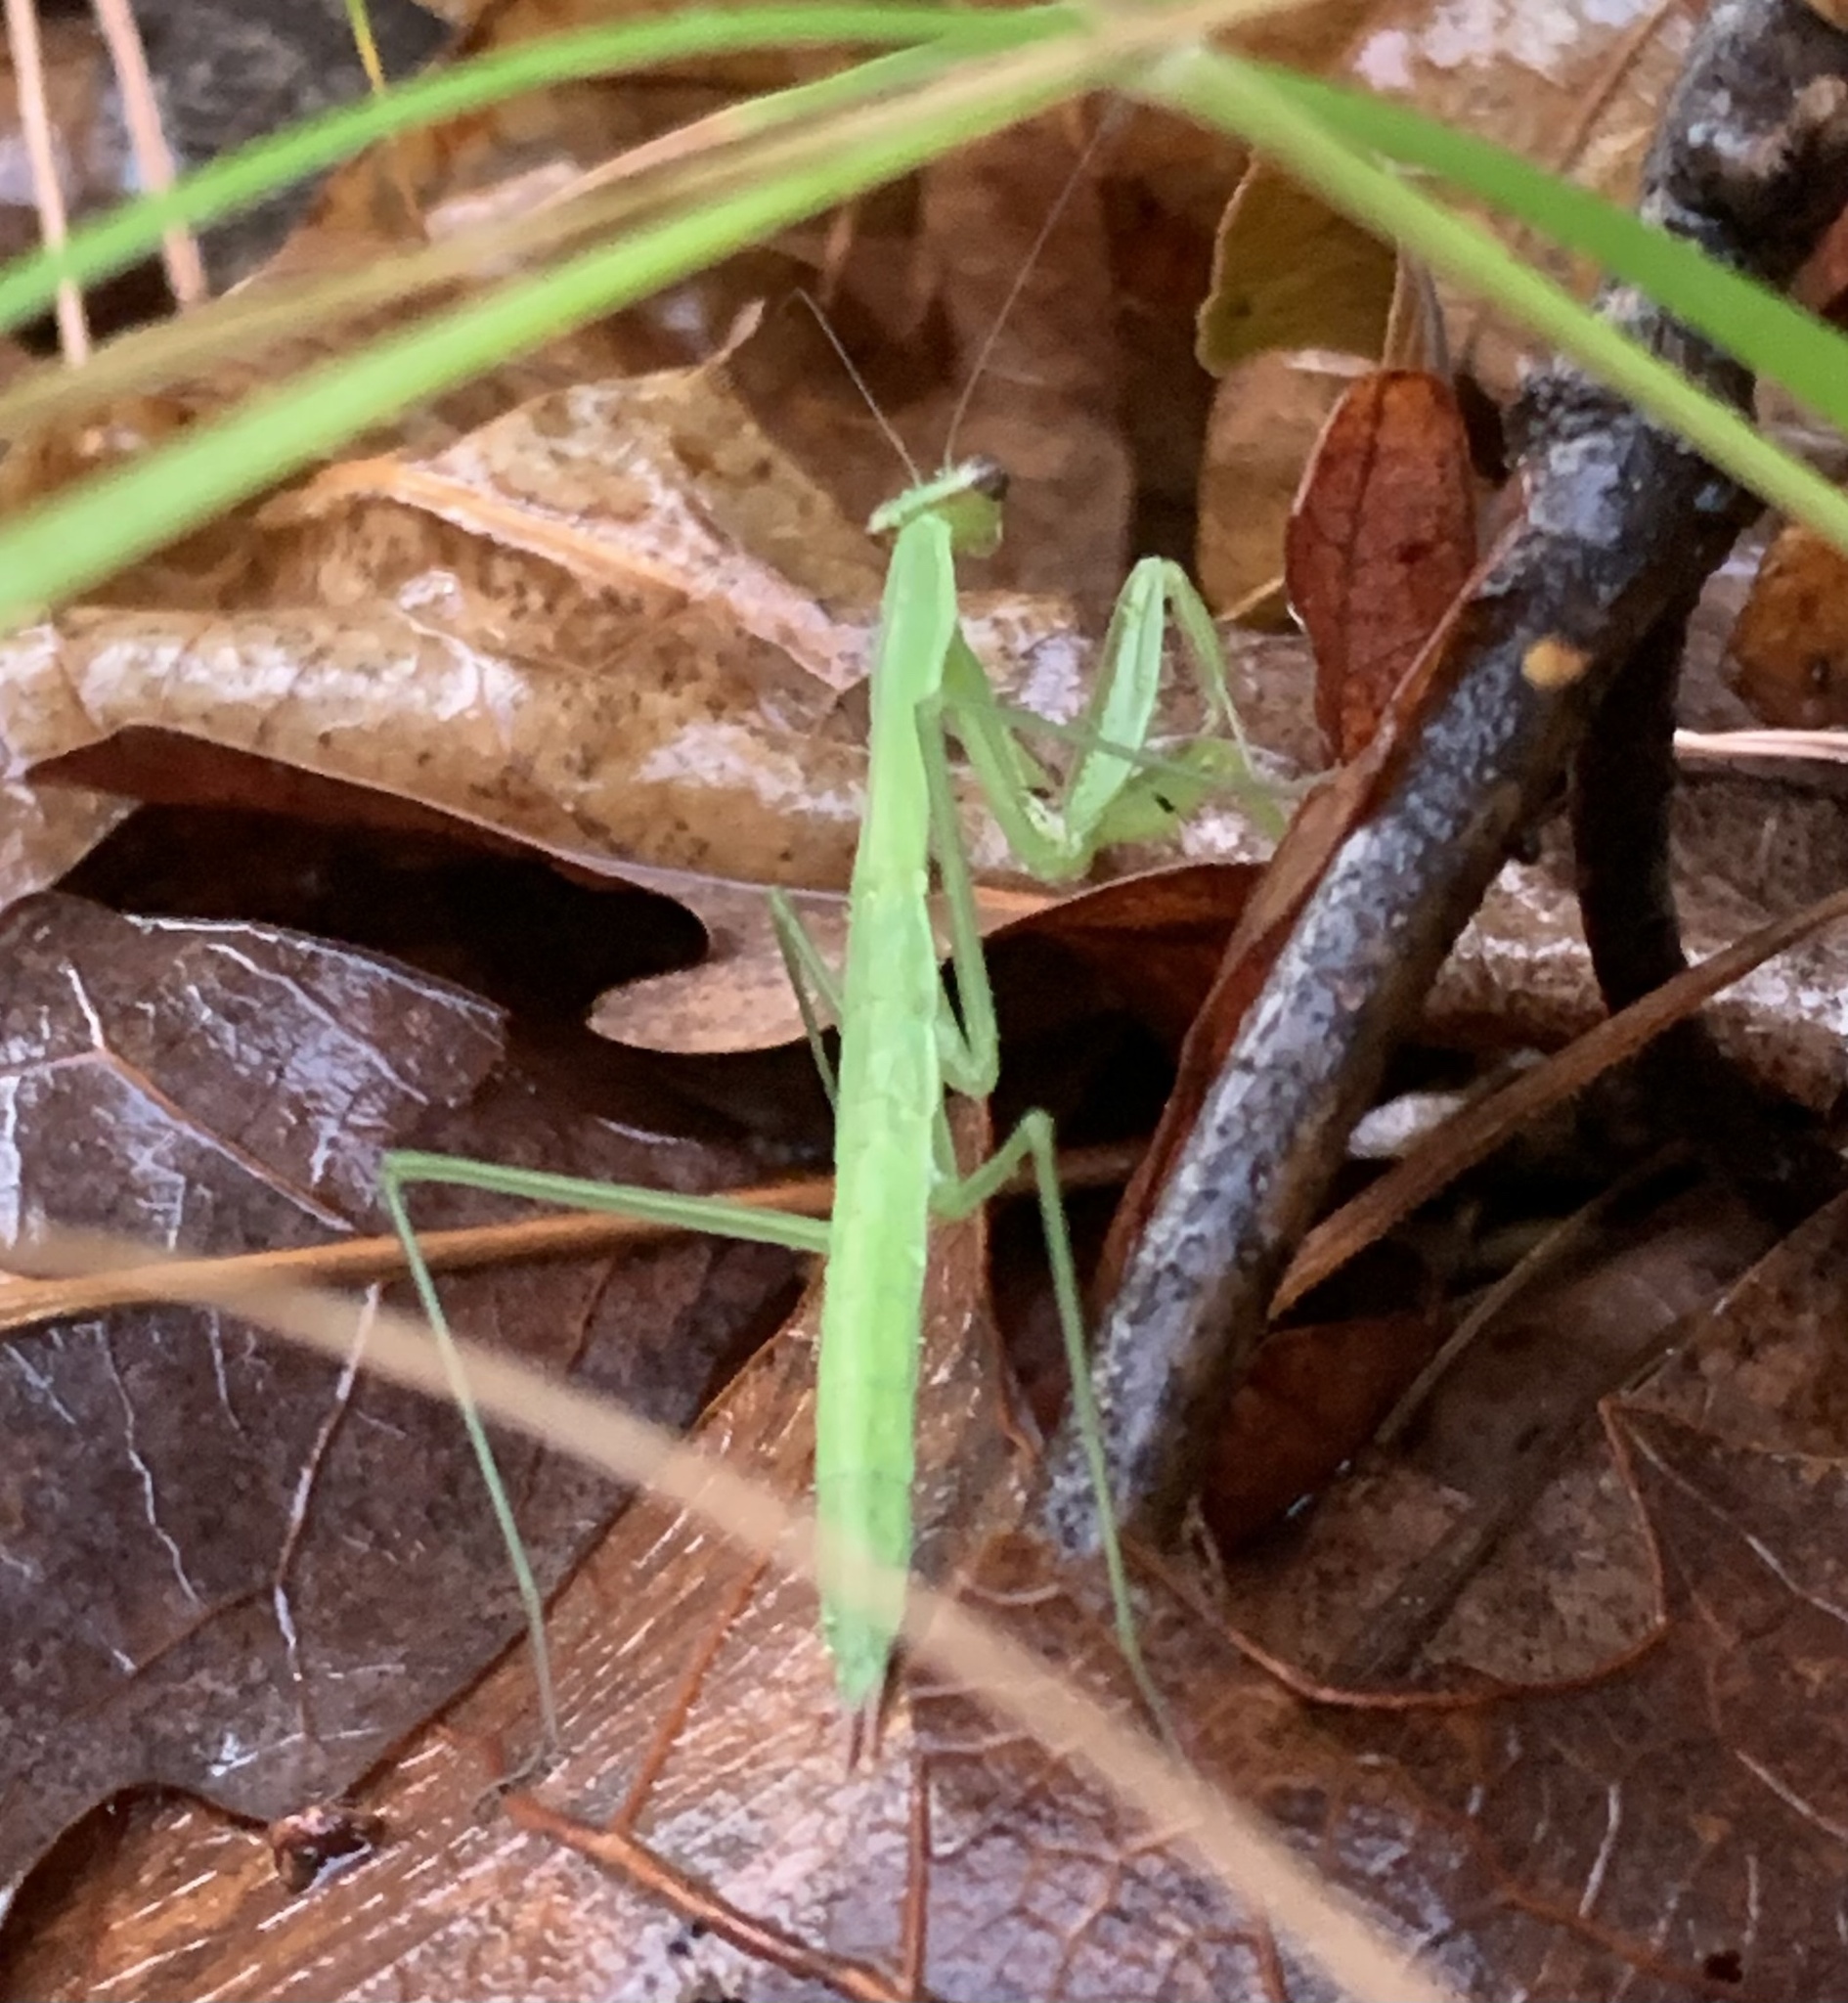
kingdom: Animalia
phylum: Arthropoda
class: Insecta
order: Mantodea
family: Mantidae
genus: Tenodera
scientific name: Tenodera sinensis
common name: Chinese mantis
